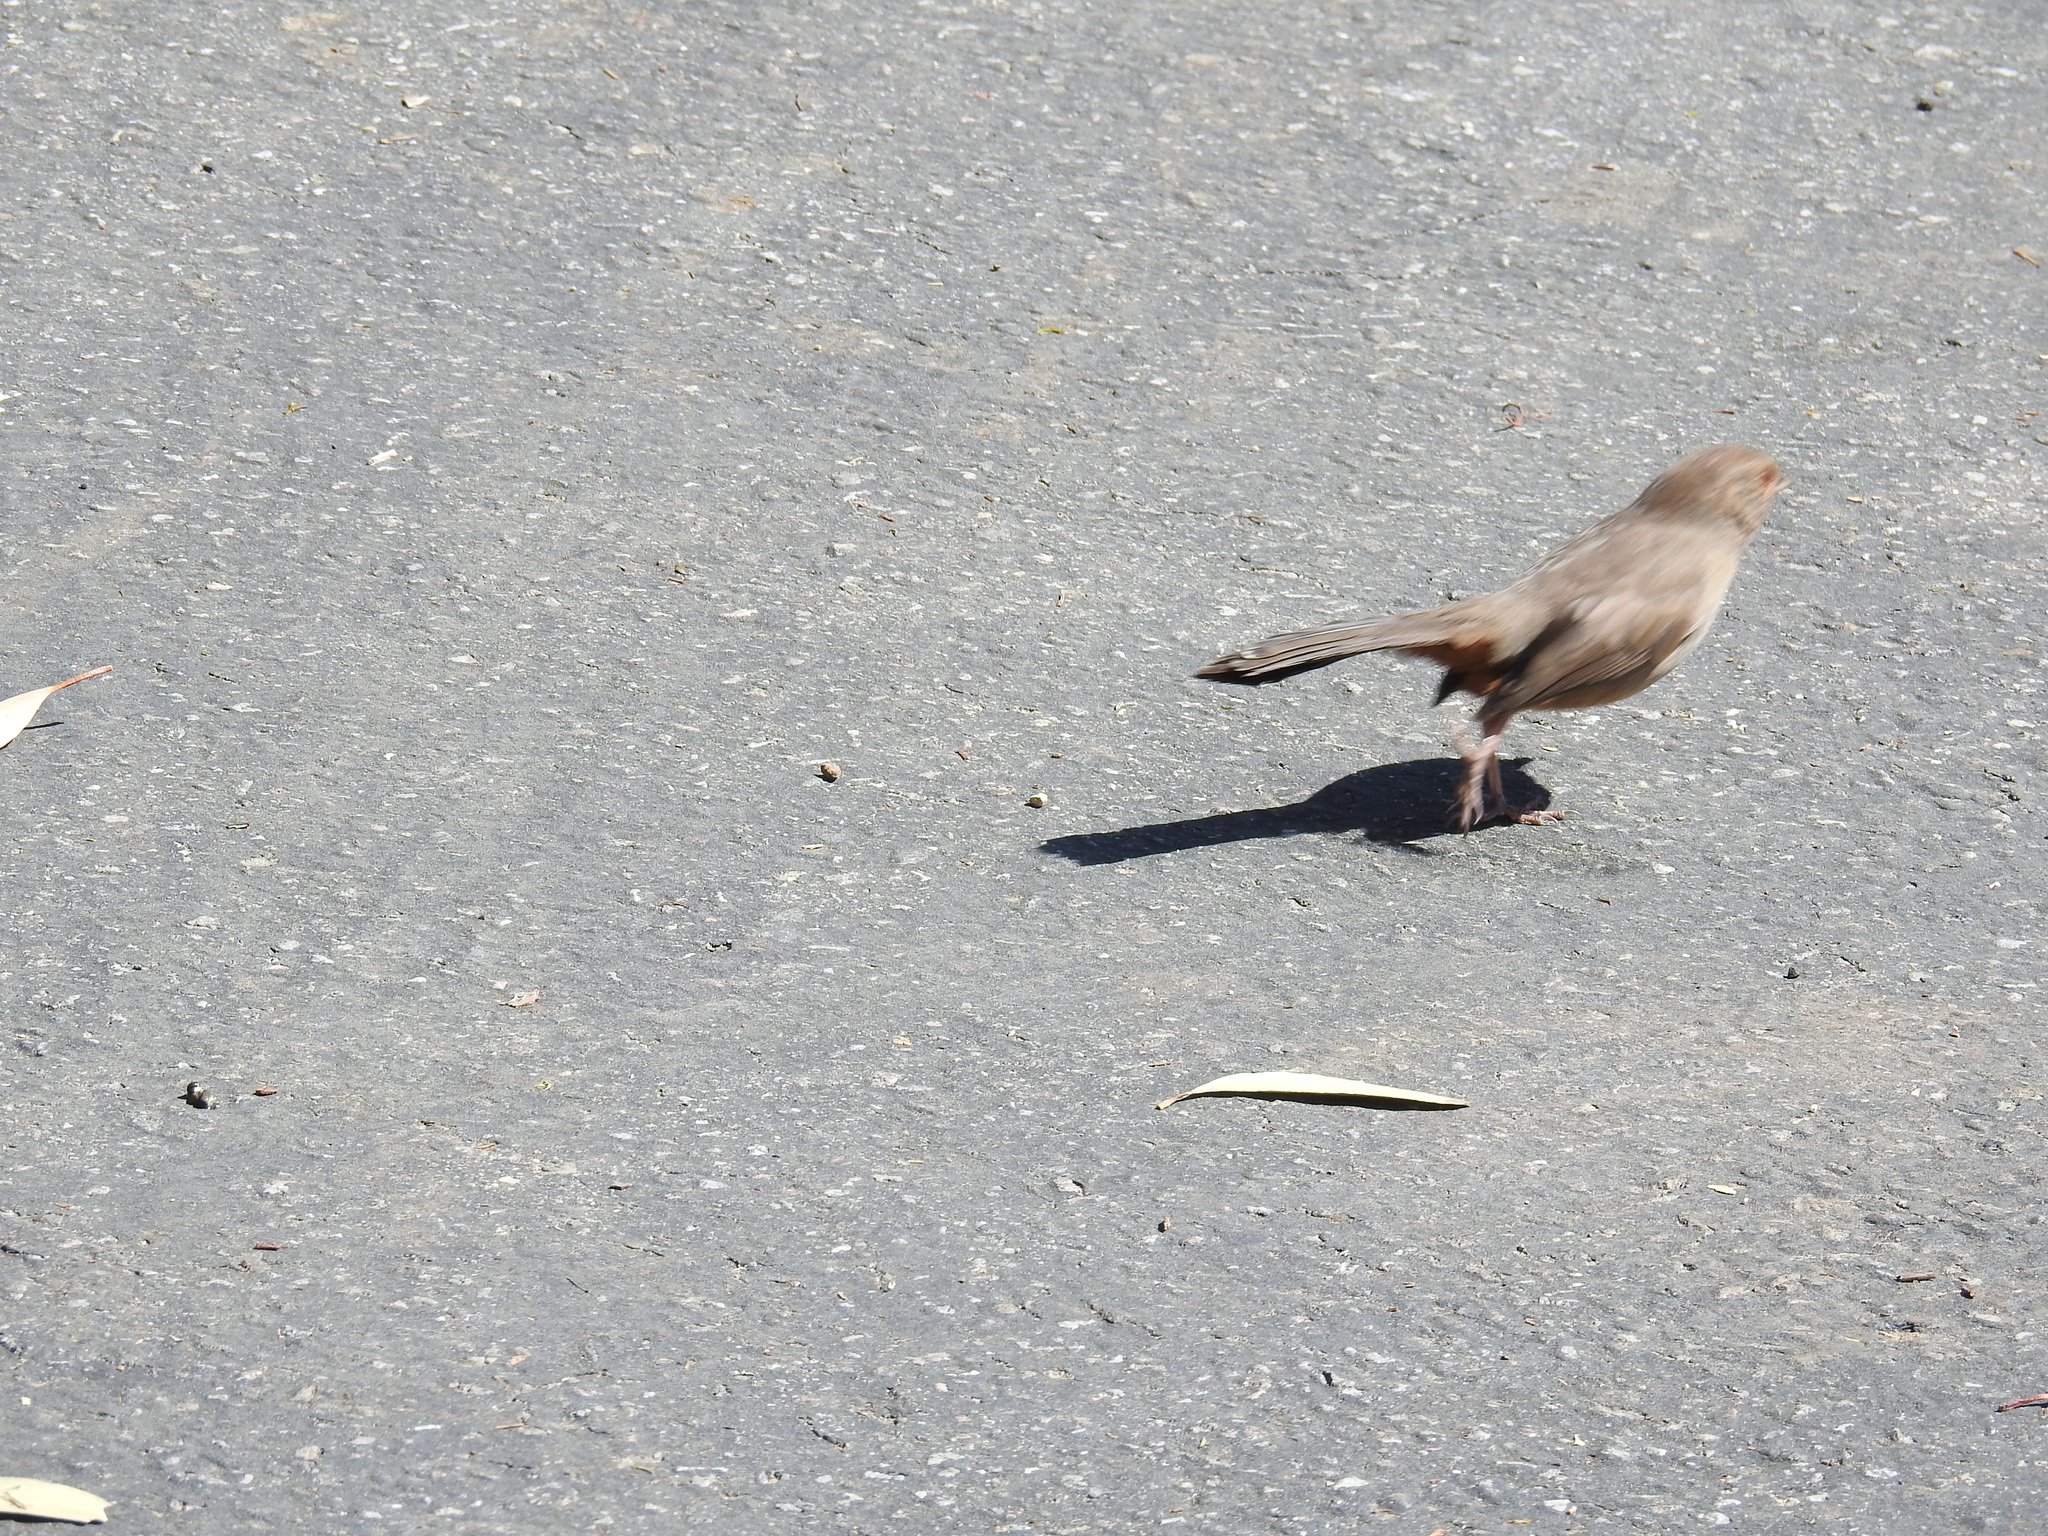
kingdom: Animalia
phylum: Chordata
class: Aves
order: Passeriformes
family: Passerellidae
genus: Melozone
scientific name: Melozone crissalis
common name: California towhee
